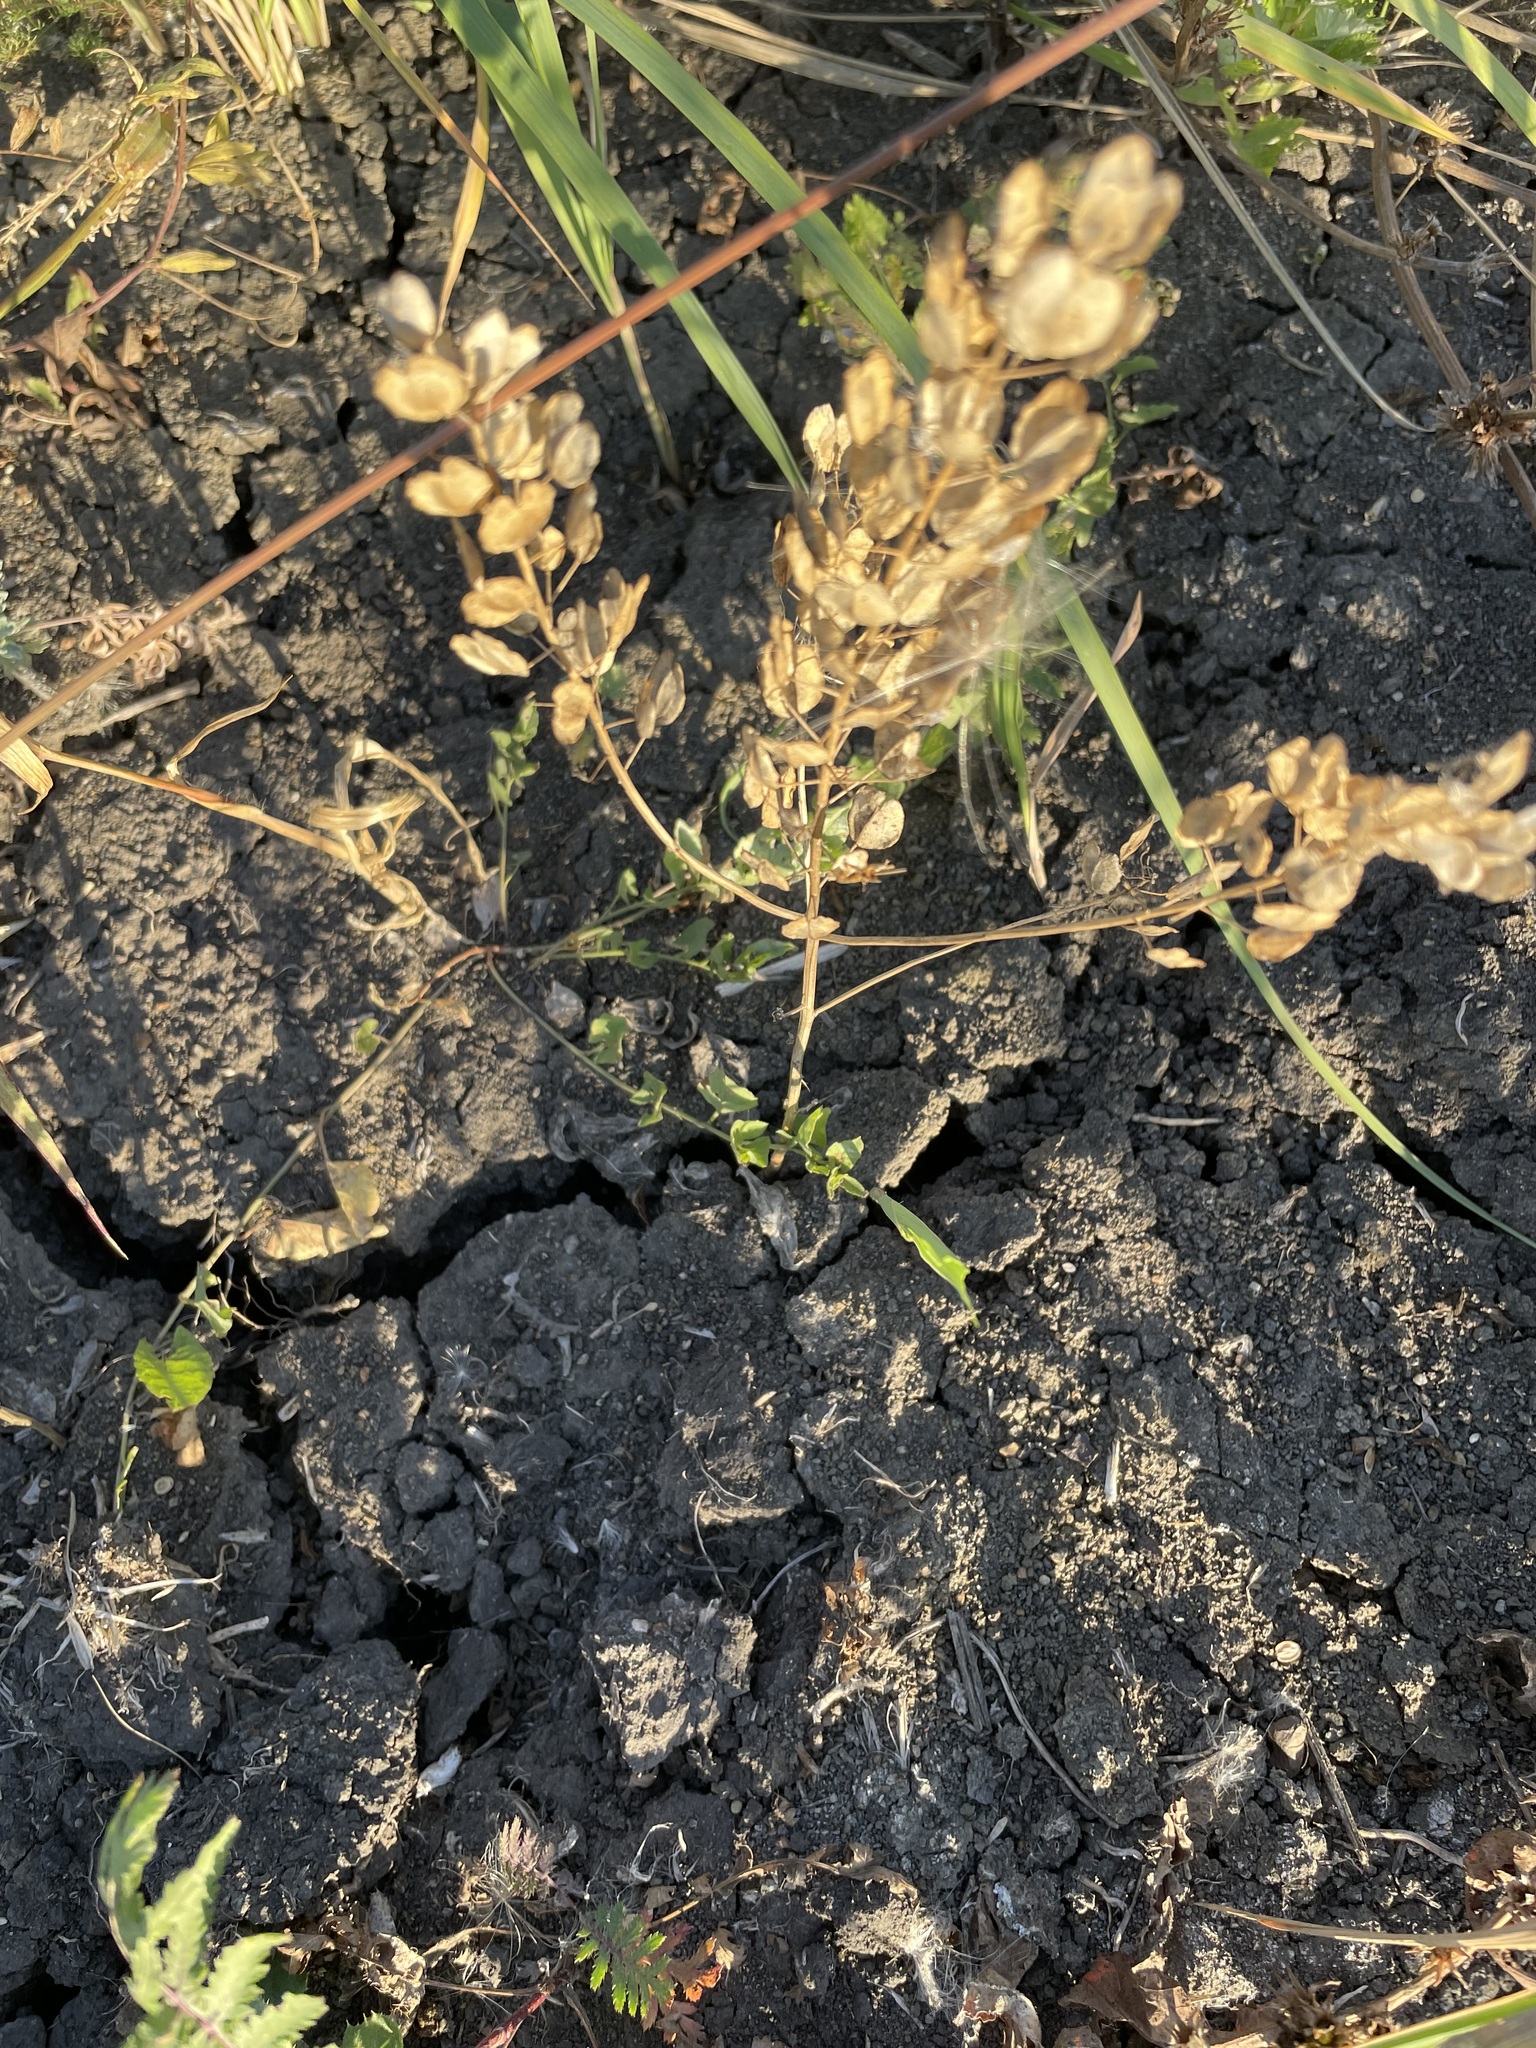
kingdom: Plantae
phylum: Tracheophyta
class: Magnoliopsida
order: Brassicales
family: Brassicaceae
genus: Thlaspi
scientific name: Thlaspi arvense
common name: Field pennycress
